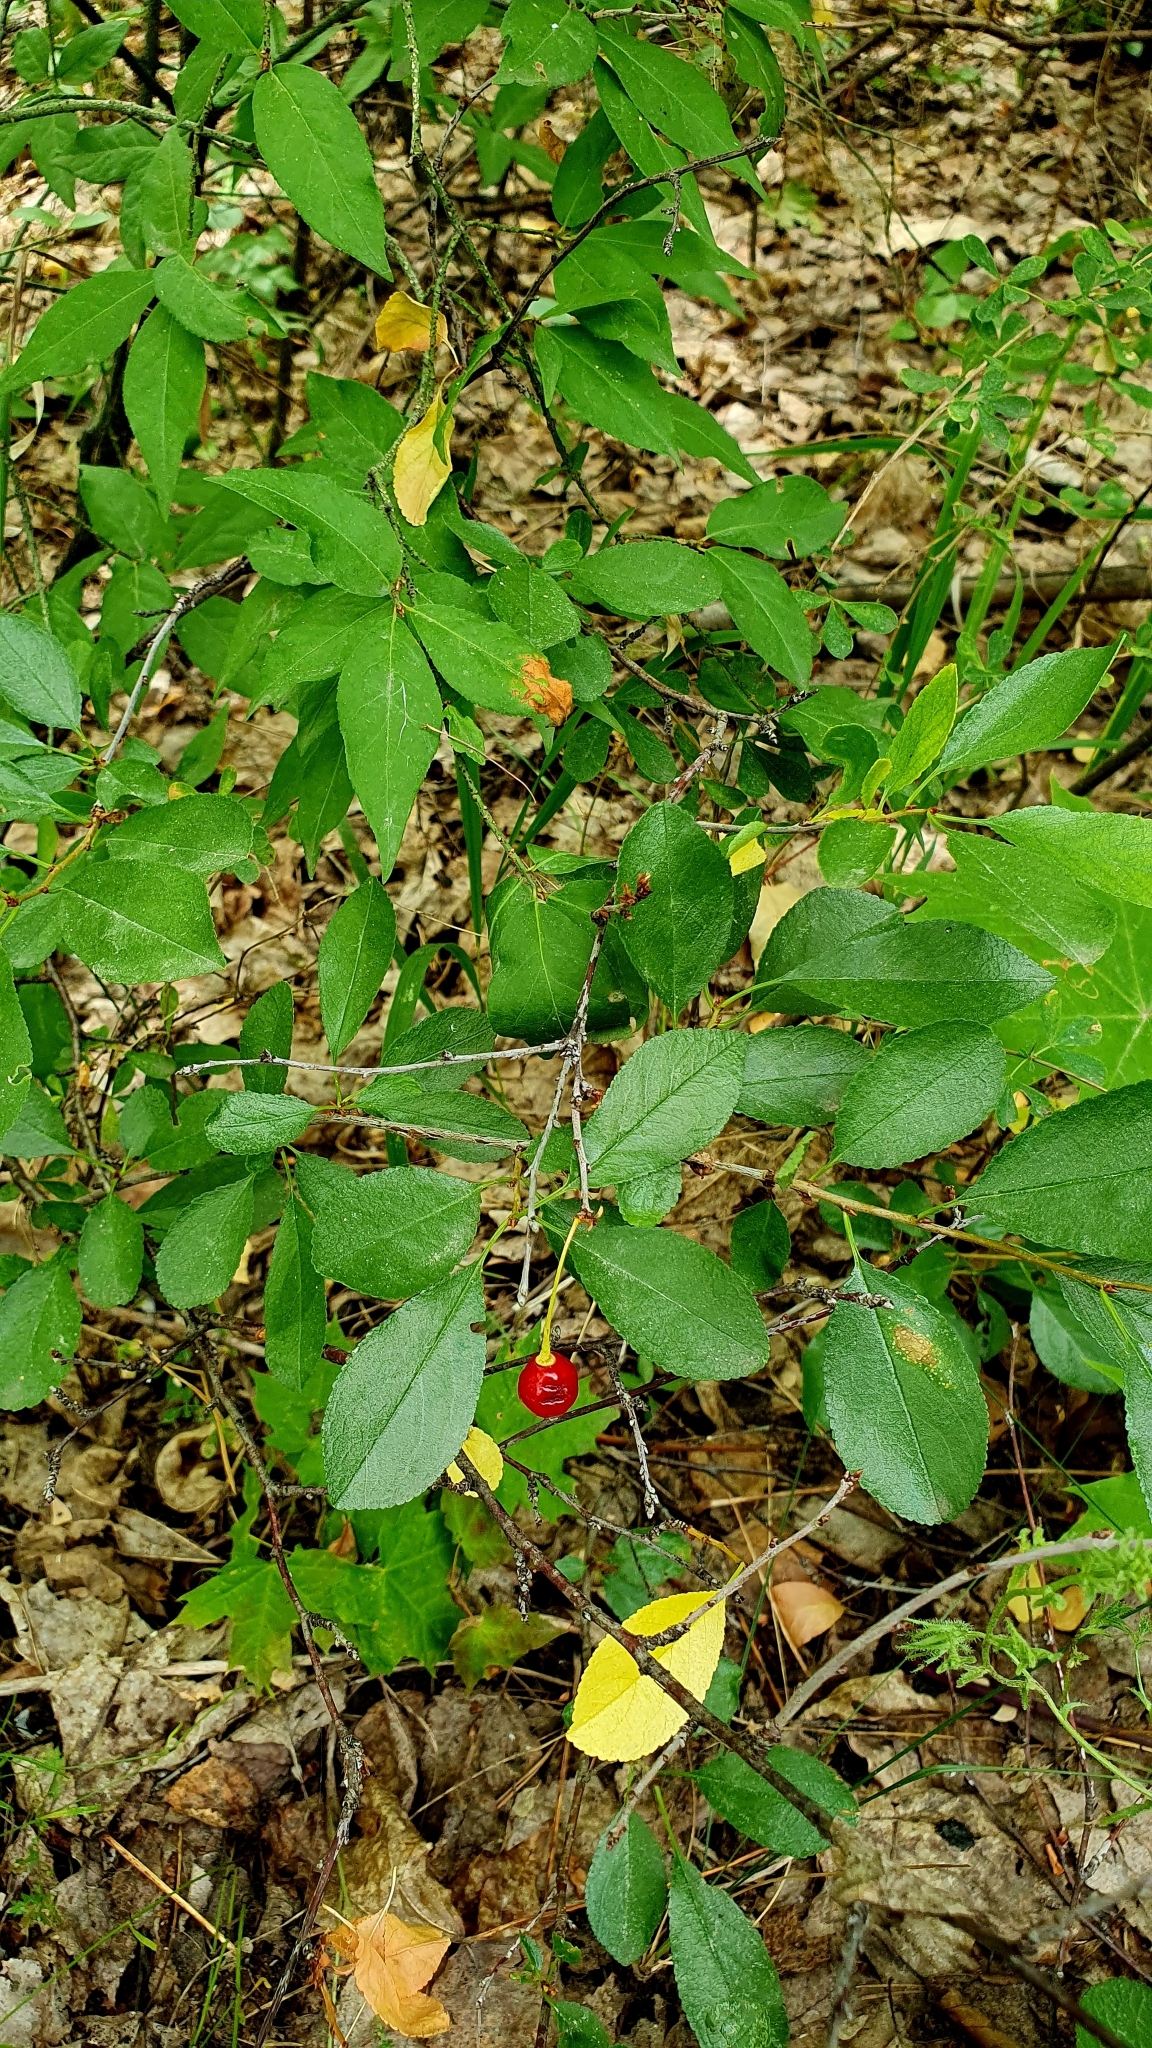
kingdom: Plantae
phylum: Tracheophyta
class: Magnoliopsida
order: Rosales
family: Rosaceae
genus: Prunus
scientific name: Prunus fruticosa
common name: European dwarf cherry
